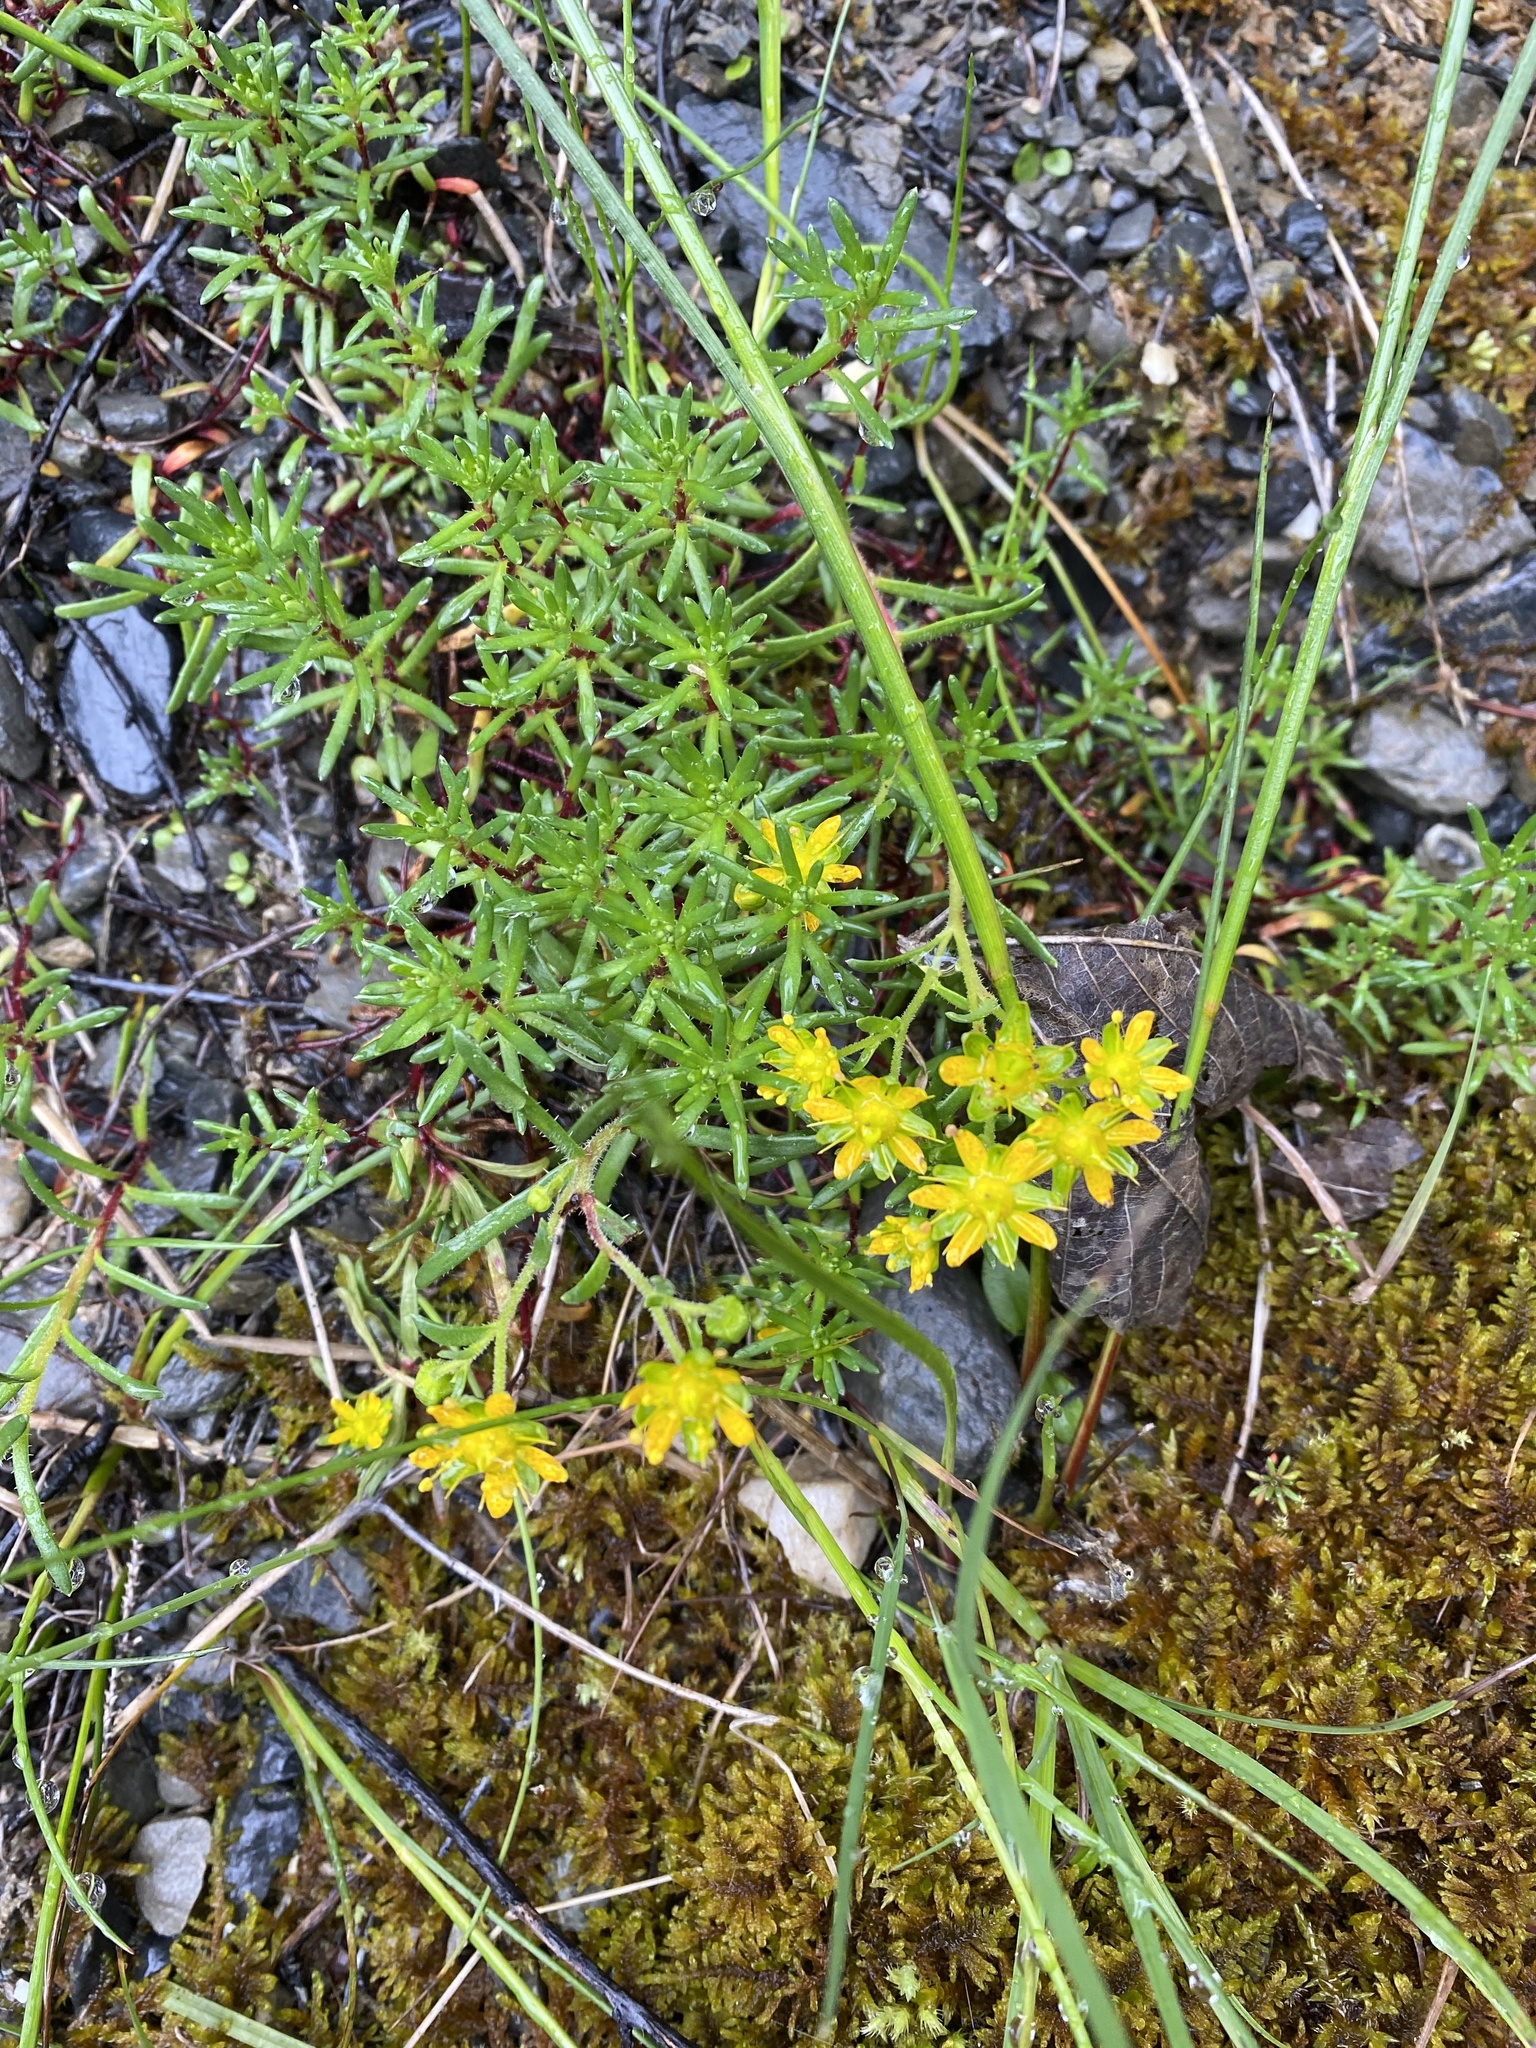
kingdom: Plantae
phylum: Tracheophyta
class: Magnoliopsida
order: Saxifragales
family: Saxifragaceae
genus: Saxifraga
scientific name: Saxifraga aizoides
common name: Yellow mountain saxifrage
